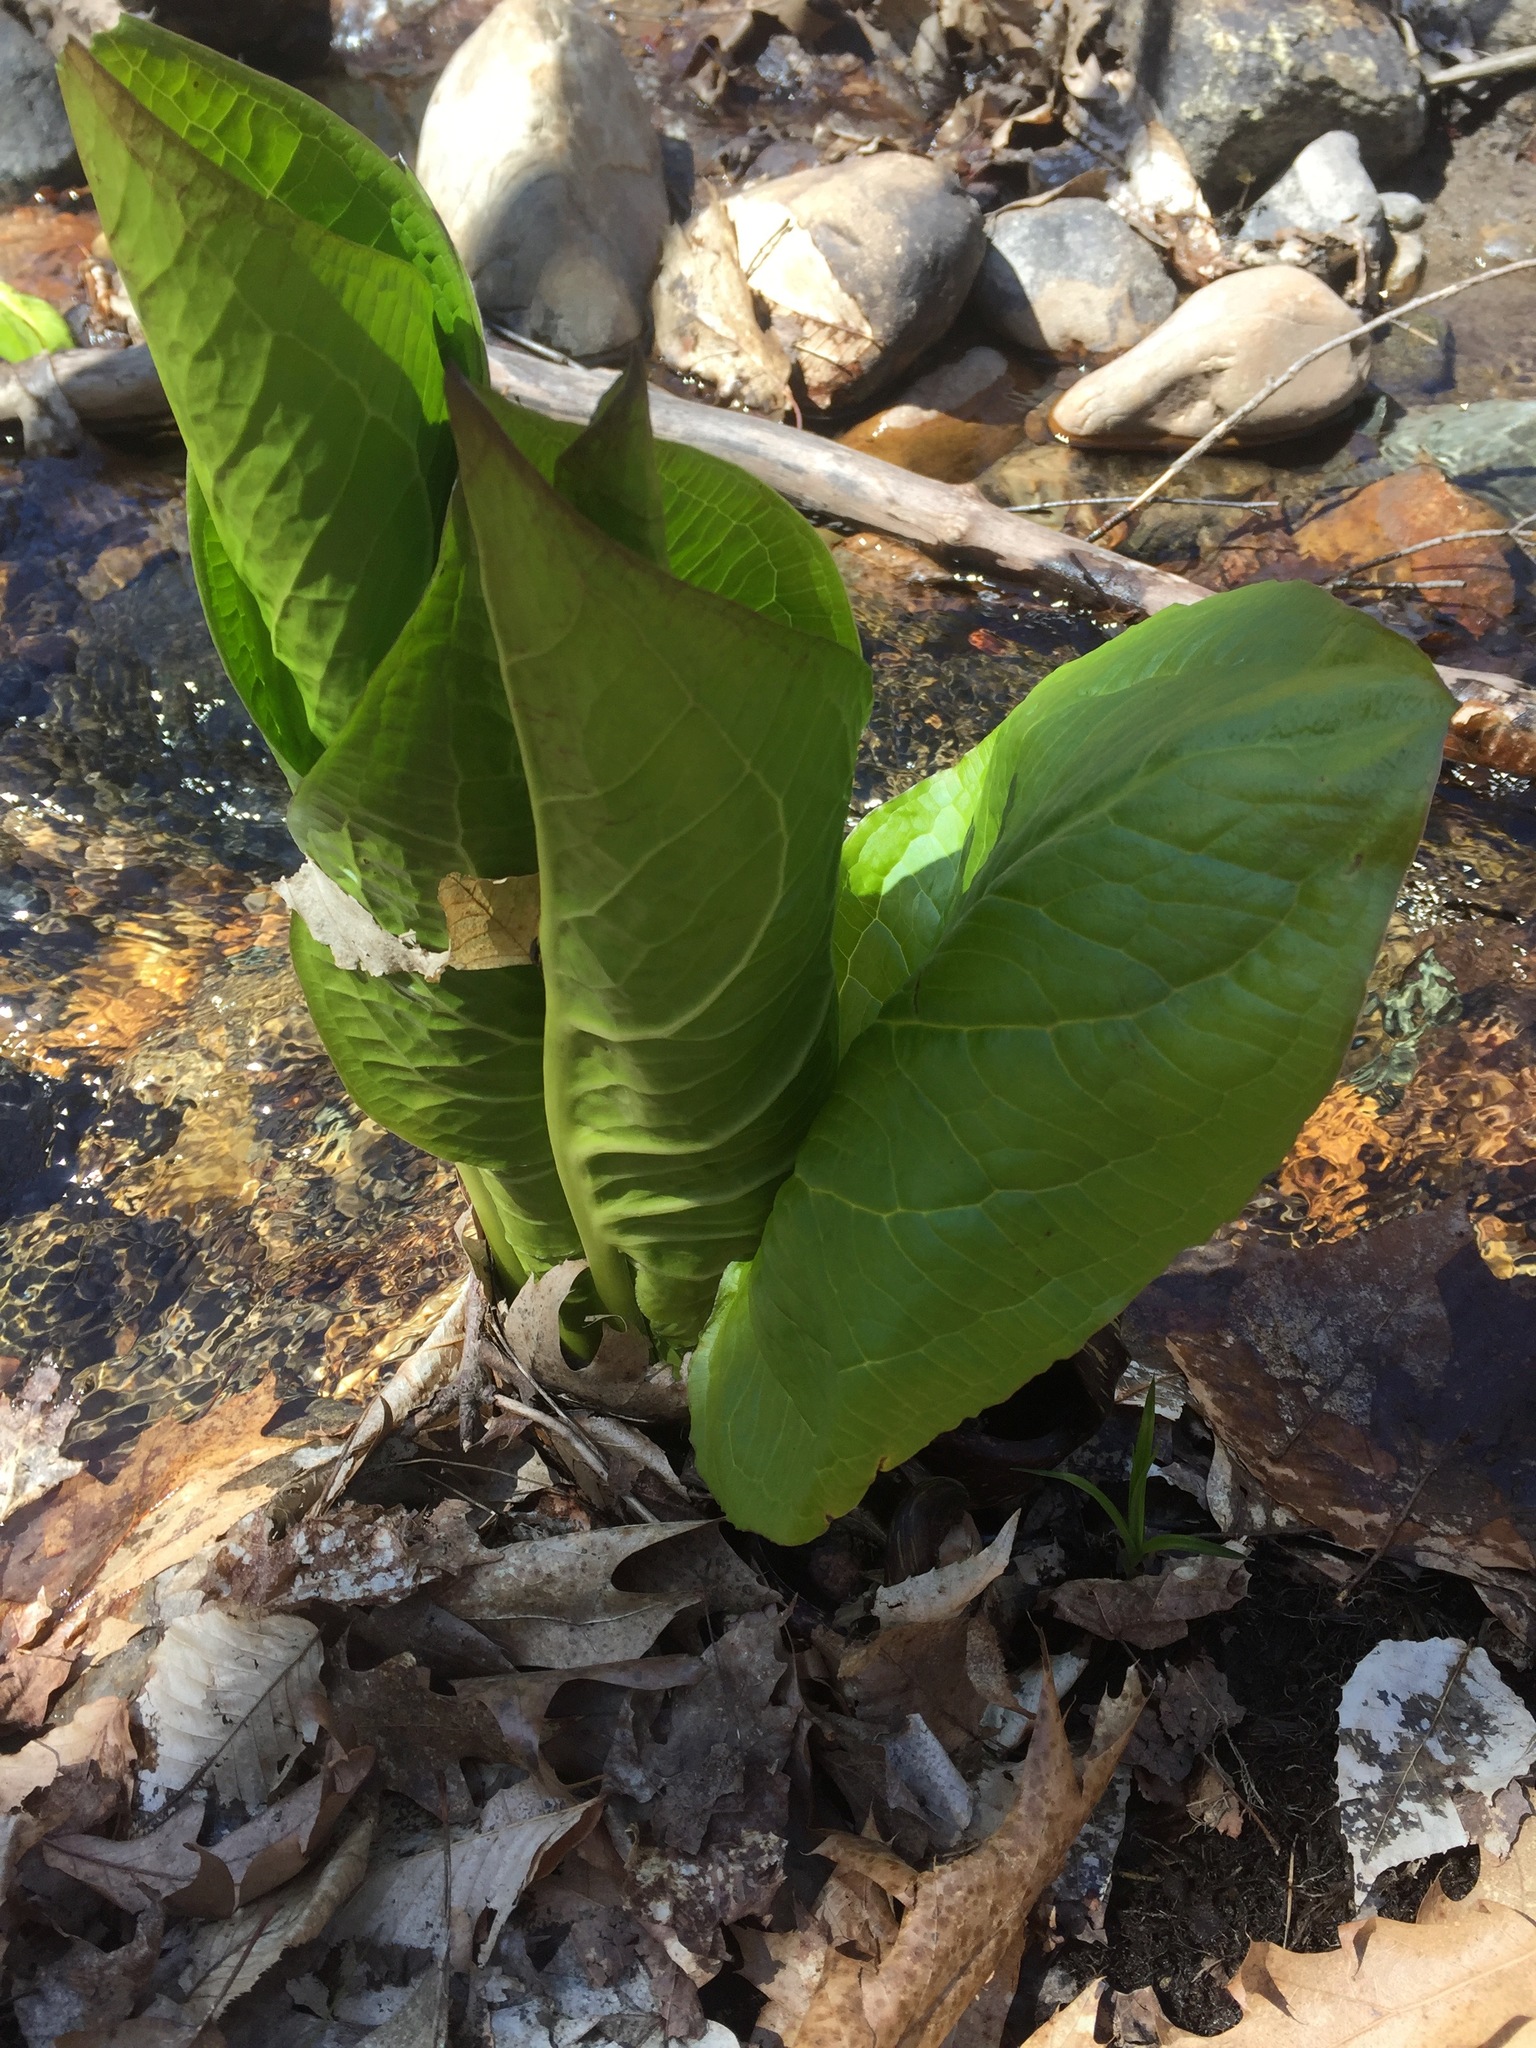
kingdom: Plantae
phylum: Tracheophyta
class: Liliopsida
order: Alismatales
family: Araceae
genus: Symplocarpus
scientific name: Symplocarpus foetidus
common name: Eastern skunk cabbage
